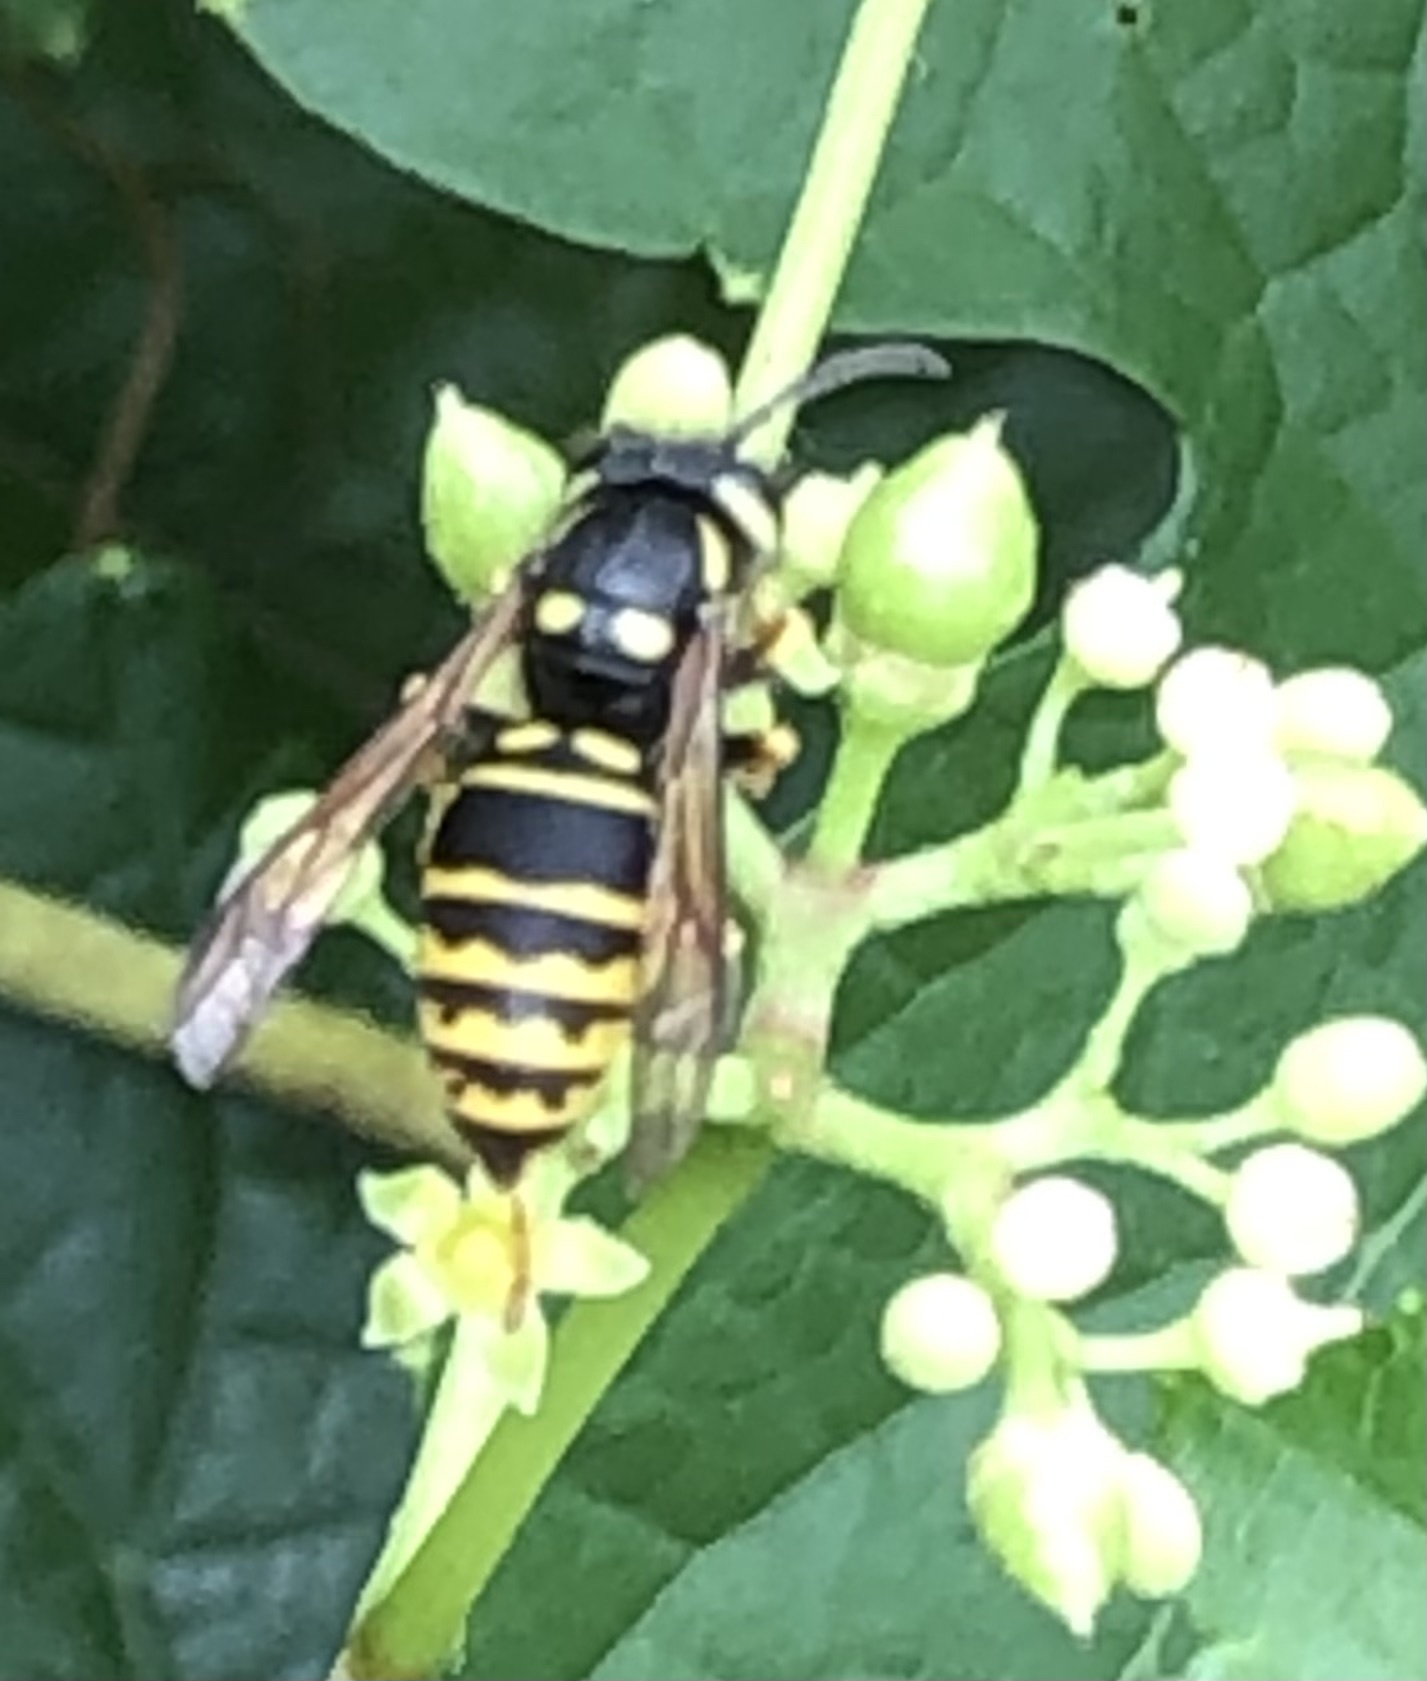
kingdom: Animalia
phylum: Arthropoda
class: Insecta
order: Hymenoptera
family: Vespidae
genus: Dolichovespula
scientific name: Dolichovespula arenaria
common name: Aerial yellowjacket
